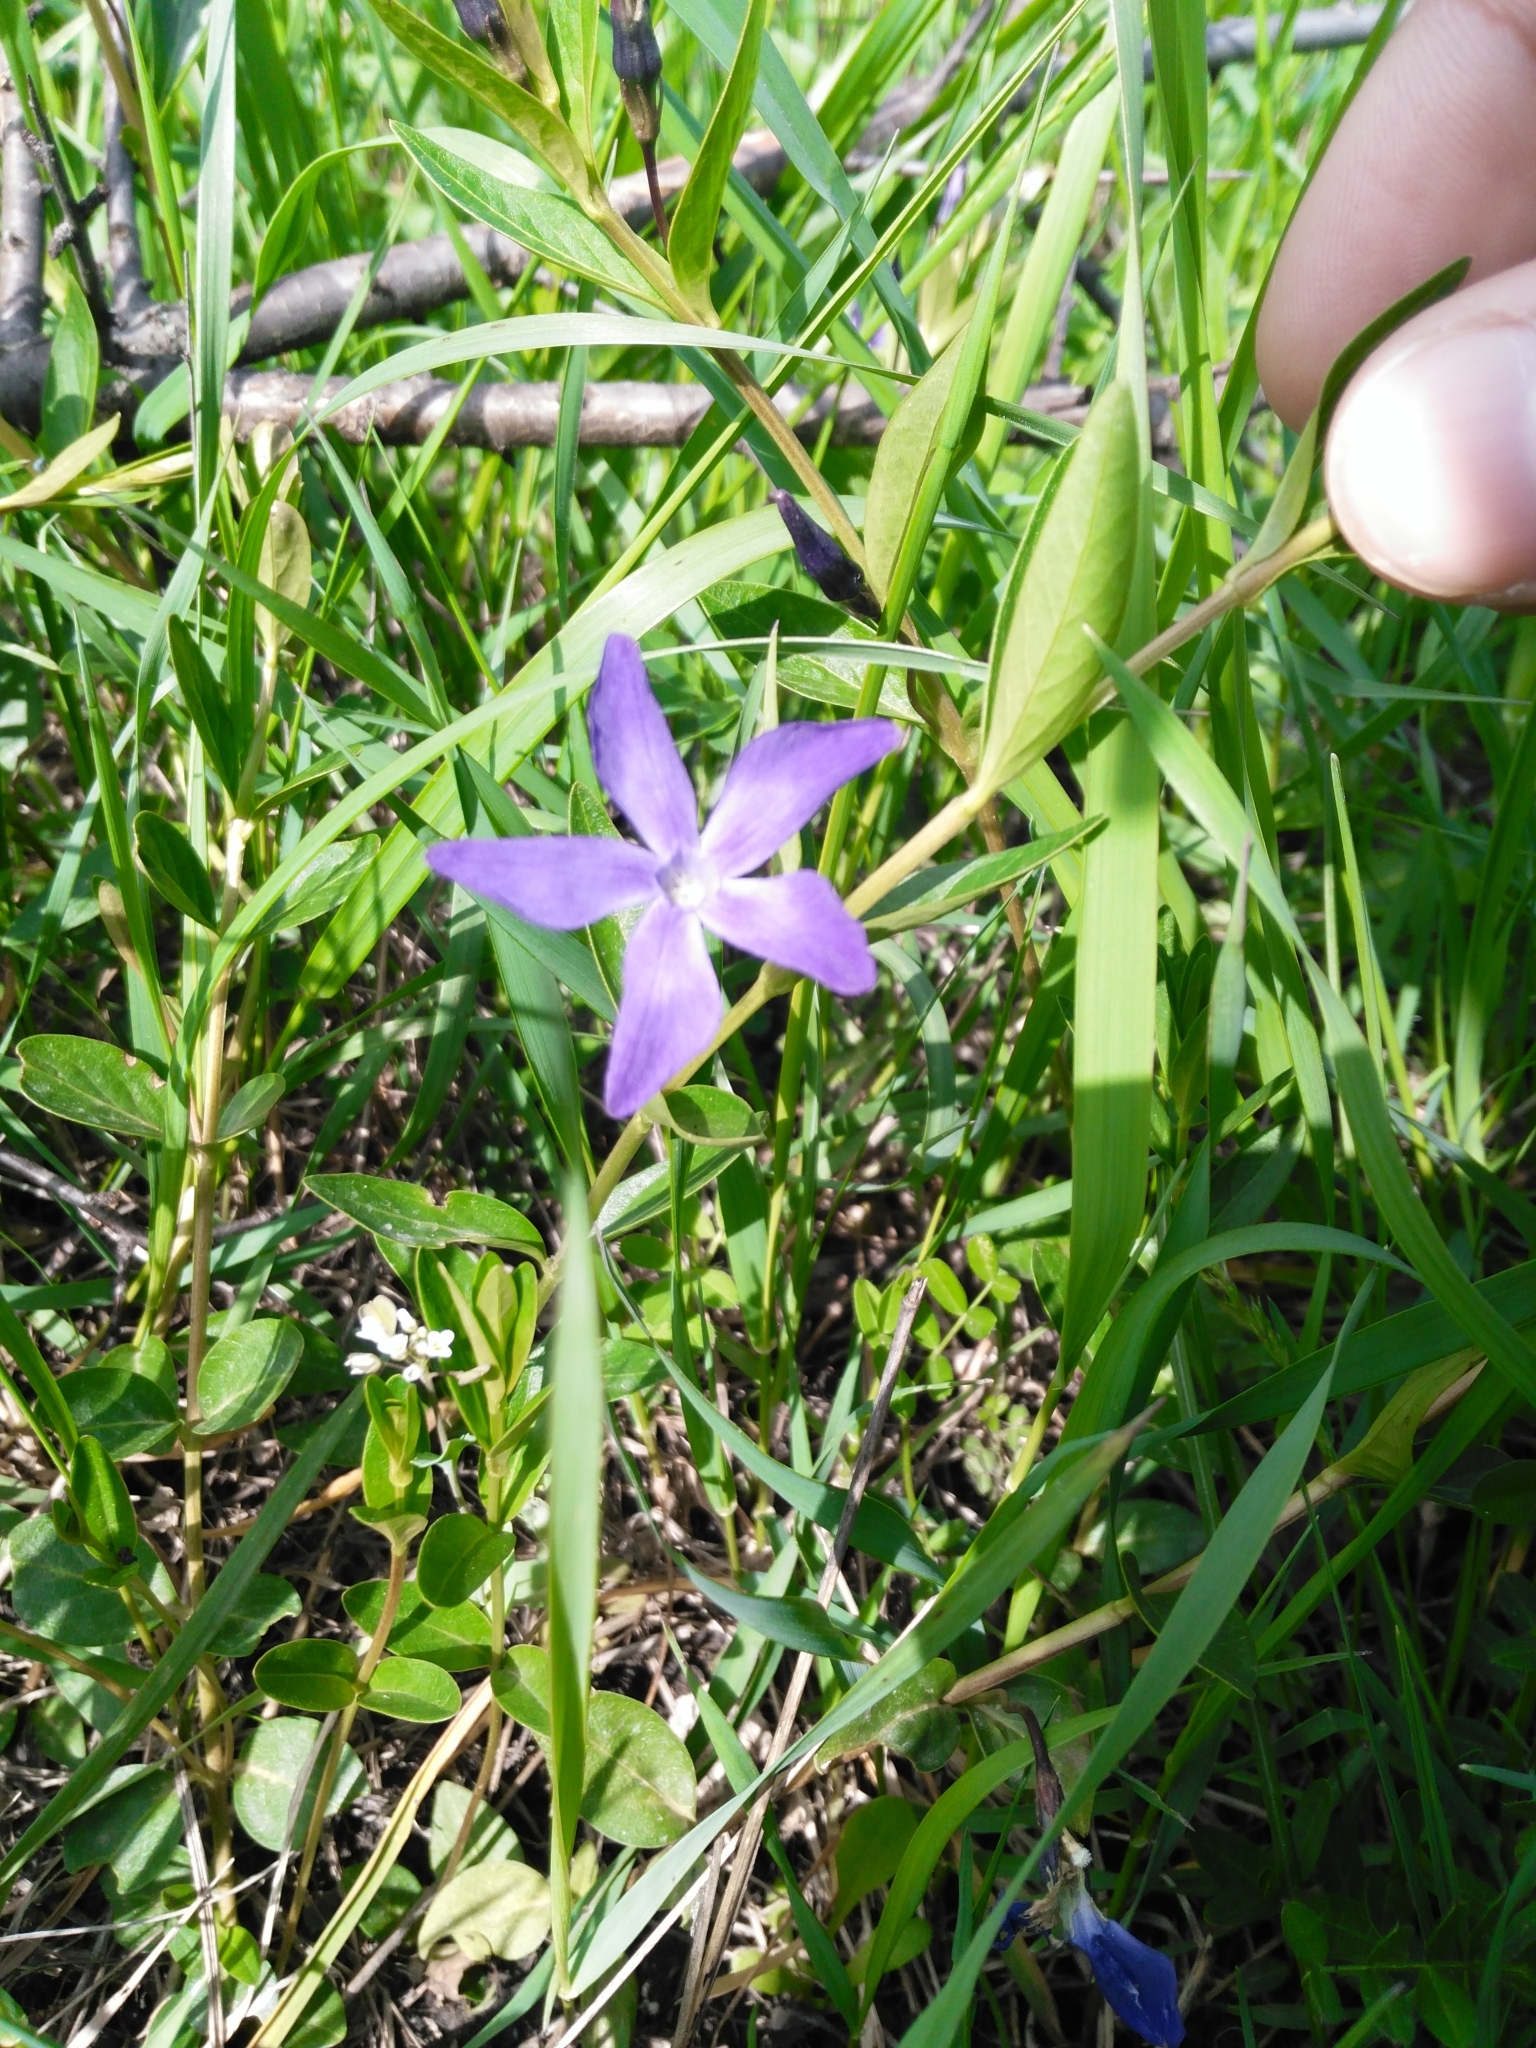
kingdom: Plantae
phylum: Tracheophyta
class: Magnoliopsida
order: Gentianales
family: Apocynaceae
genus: Vinca
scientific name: Vinca herbacea
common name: Herbaceous periwinkle
